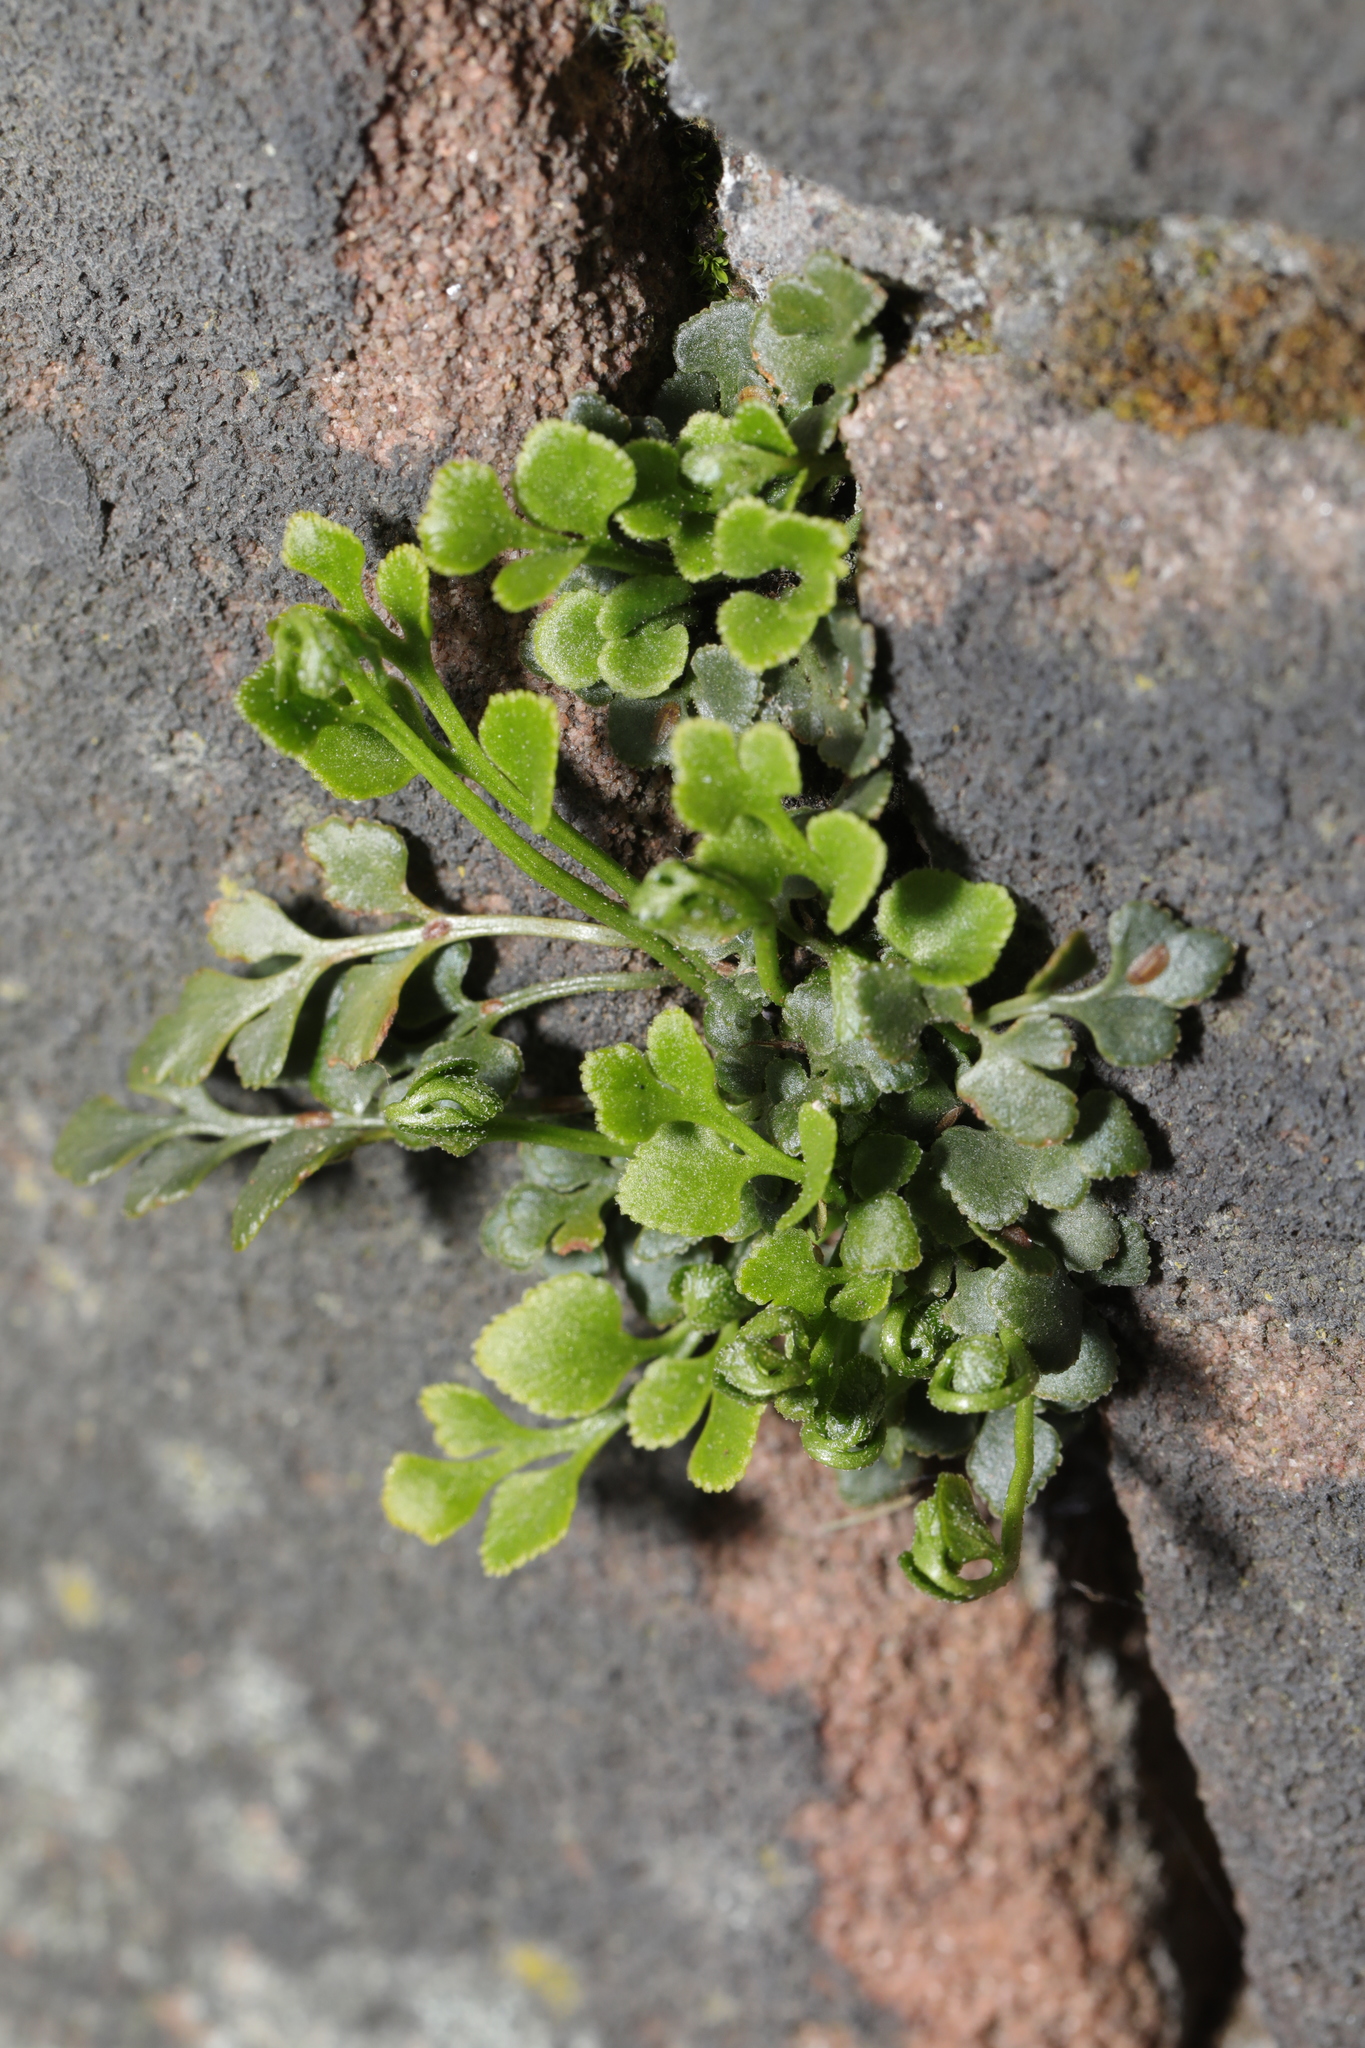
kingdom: Plantae
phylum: Tracheophyta
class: Polypodiopsida
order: Polypodiales
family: Aspleniaceae
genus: Asplenium
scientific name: Asplenium ruta-muraria
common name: Wall-rue
